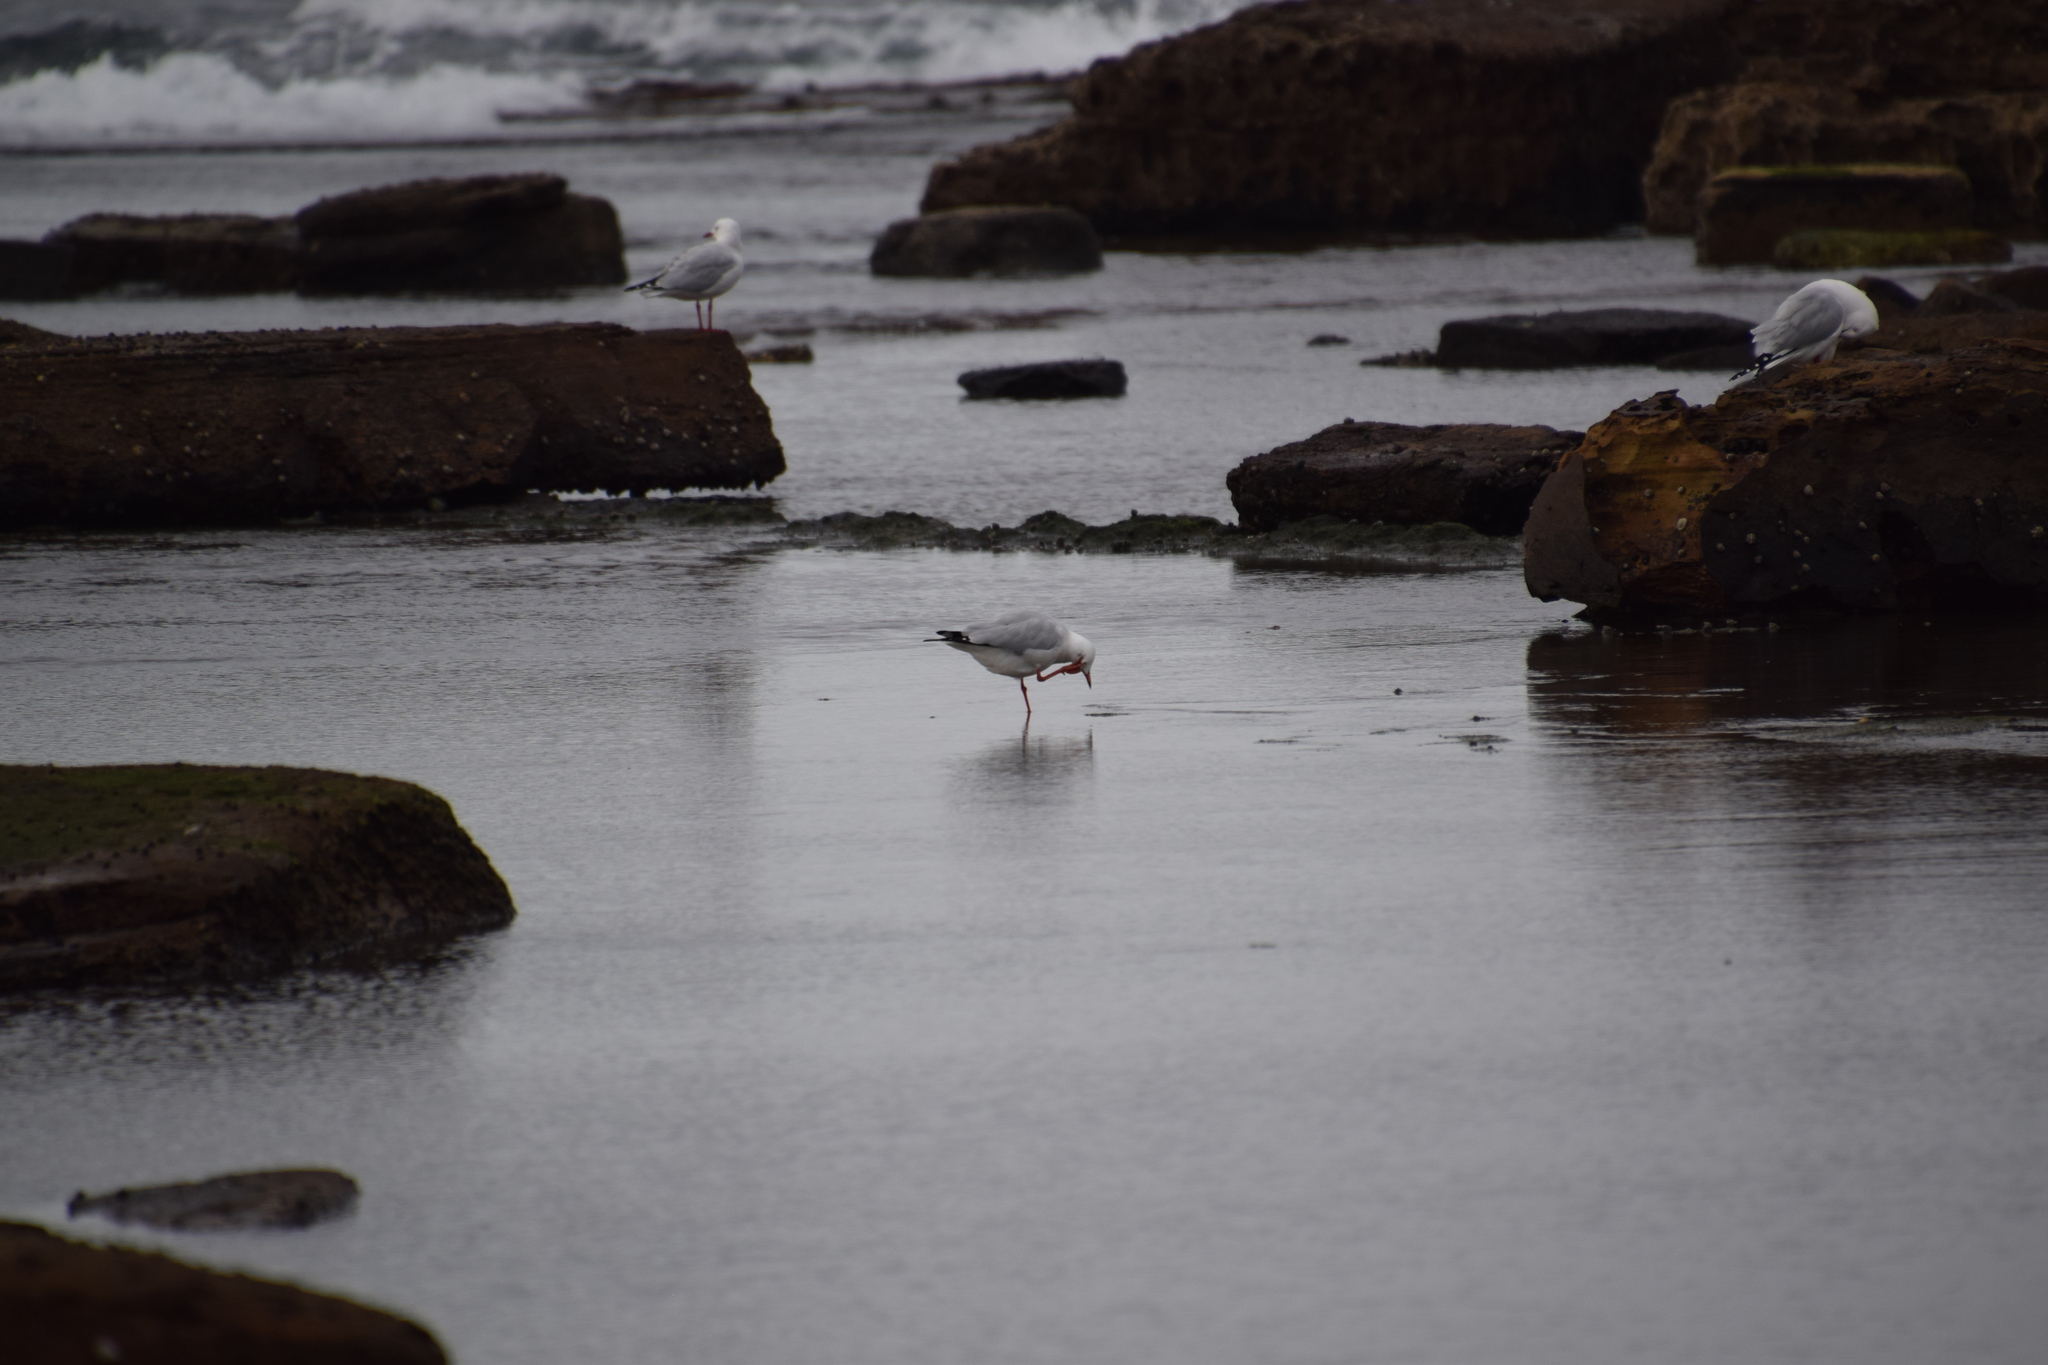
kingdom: Animalia
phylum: Chordata
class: Aves
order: Charadriiformes
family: Laridae
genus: Chroicocephalus
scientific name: Chroicocephalus novaehollandiae
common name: Silver gull
